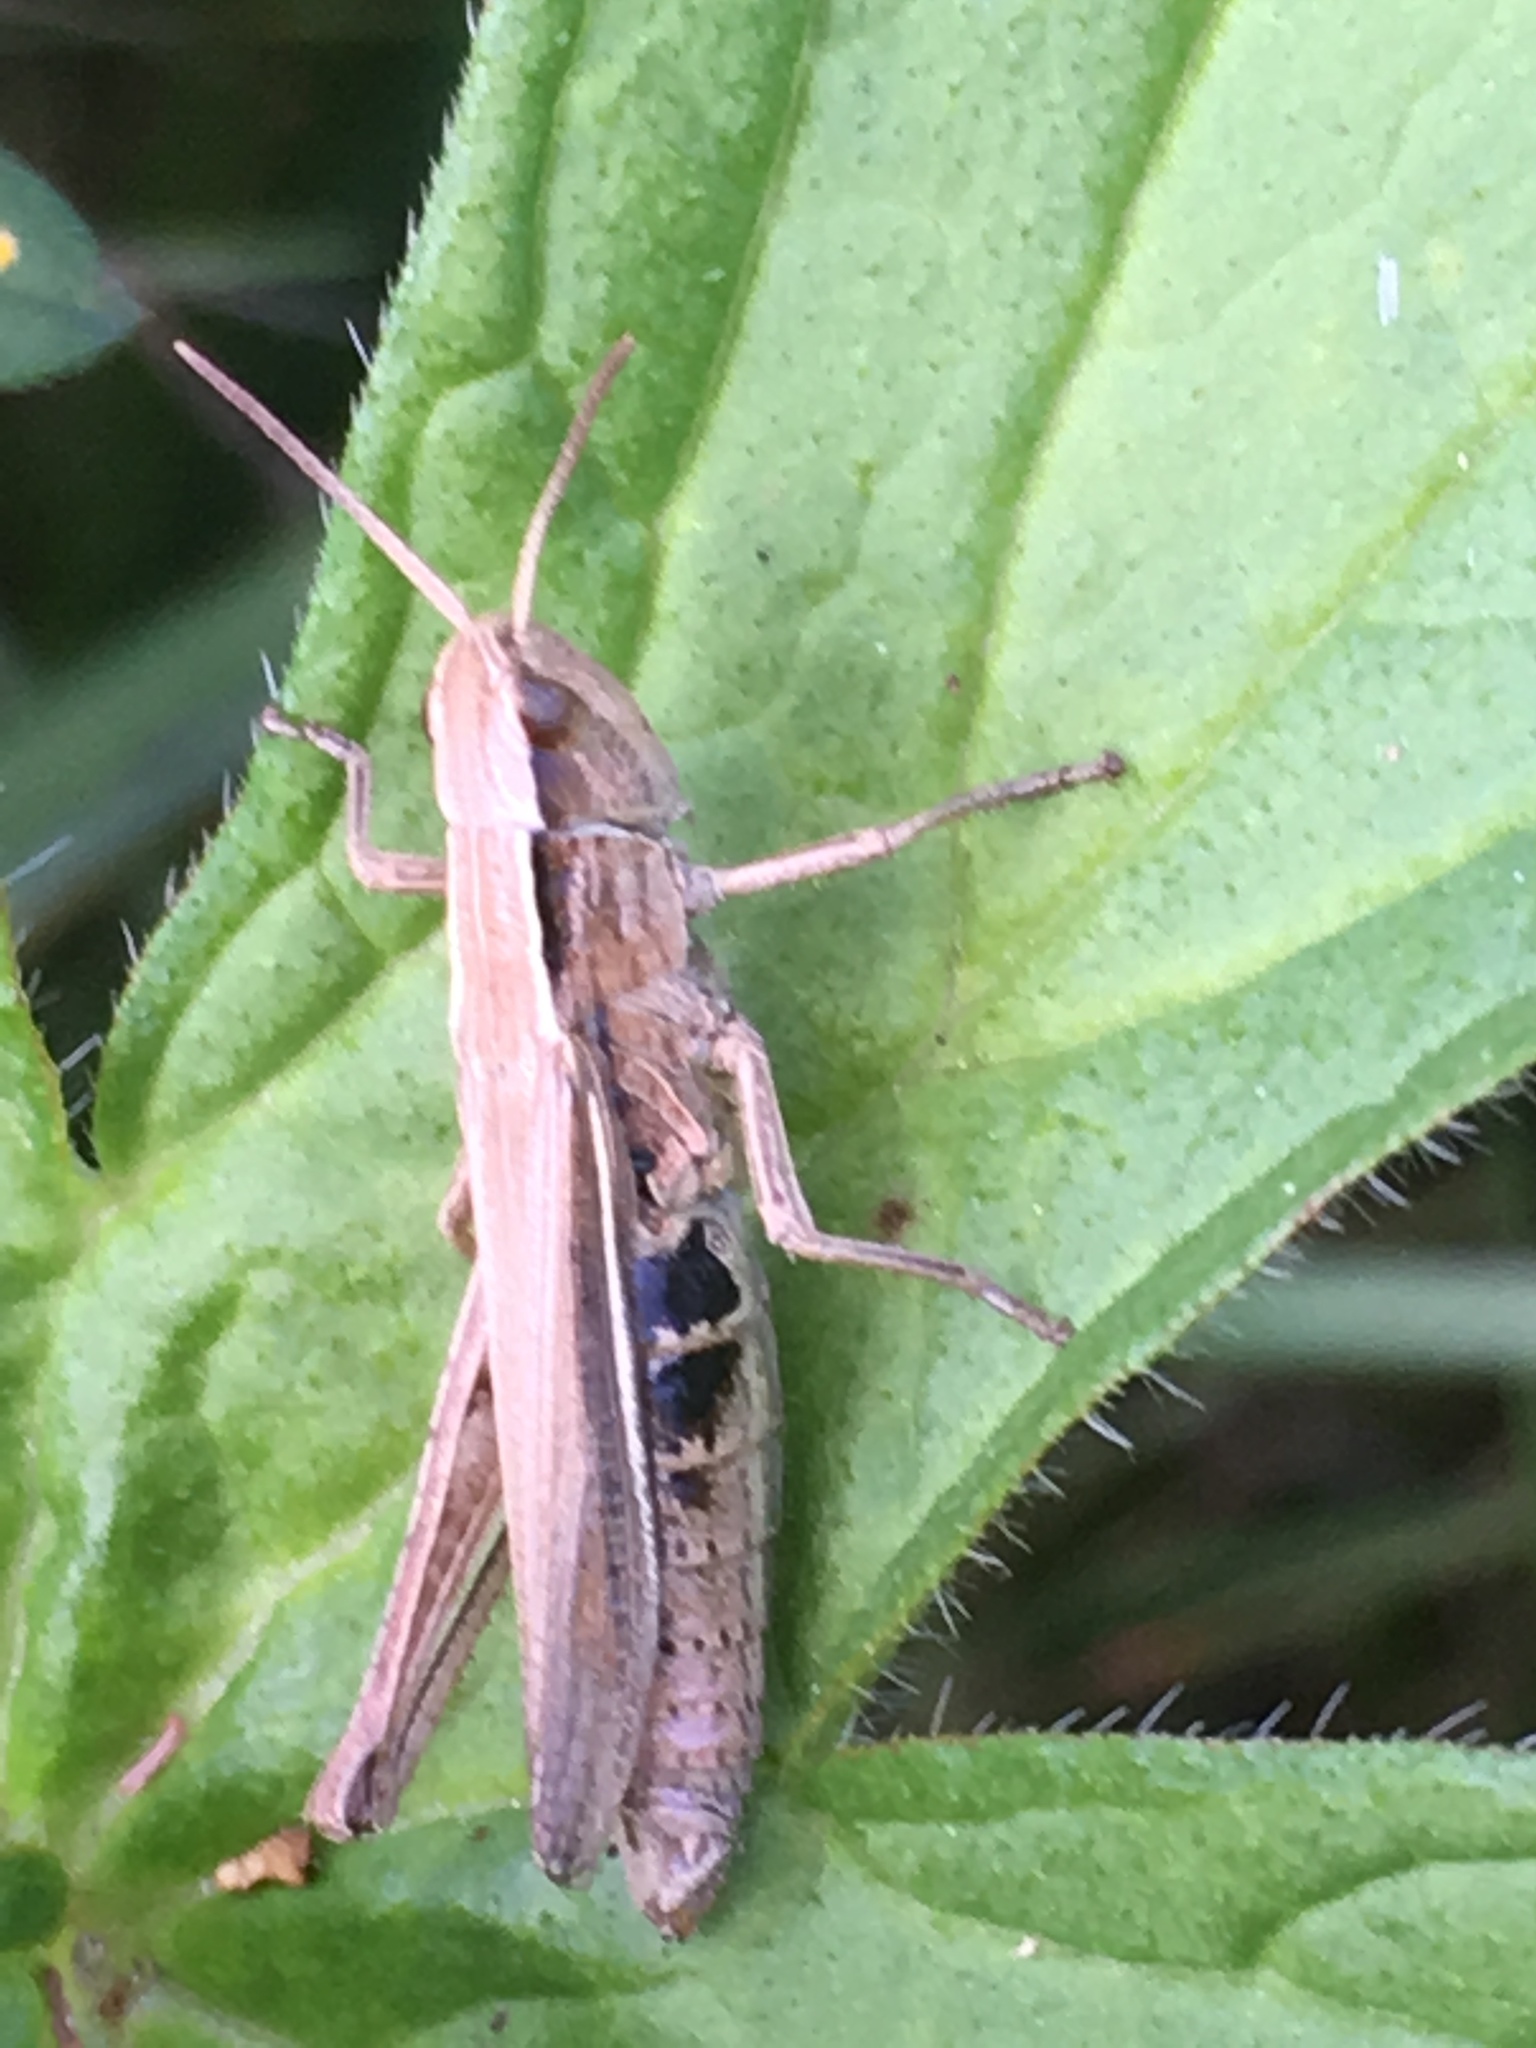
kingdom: Animalia
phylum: Arthropoda
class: Insecta
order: Orthoptera
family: Acrididae
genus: Chorthippus
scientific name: Chorthippus albomarginatus
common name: Lesser marsh grasshopper
